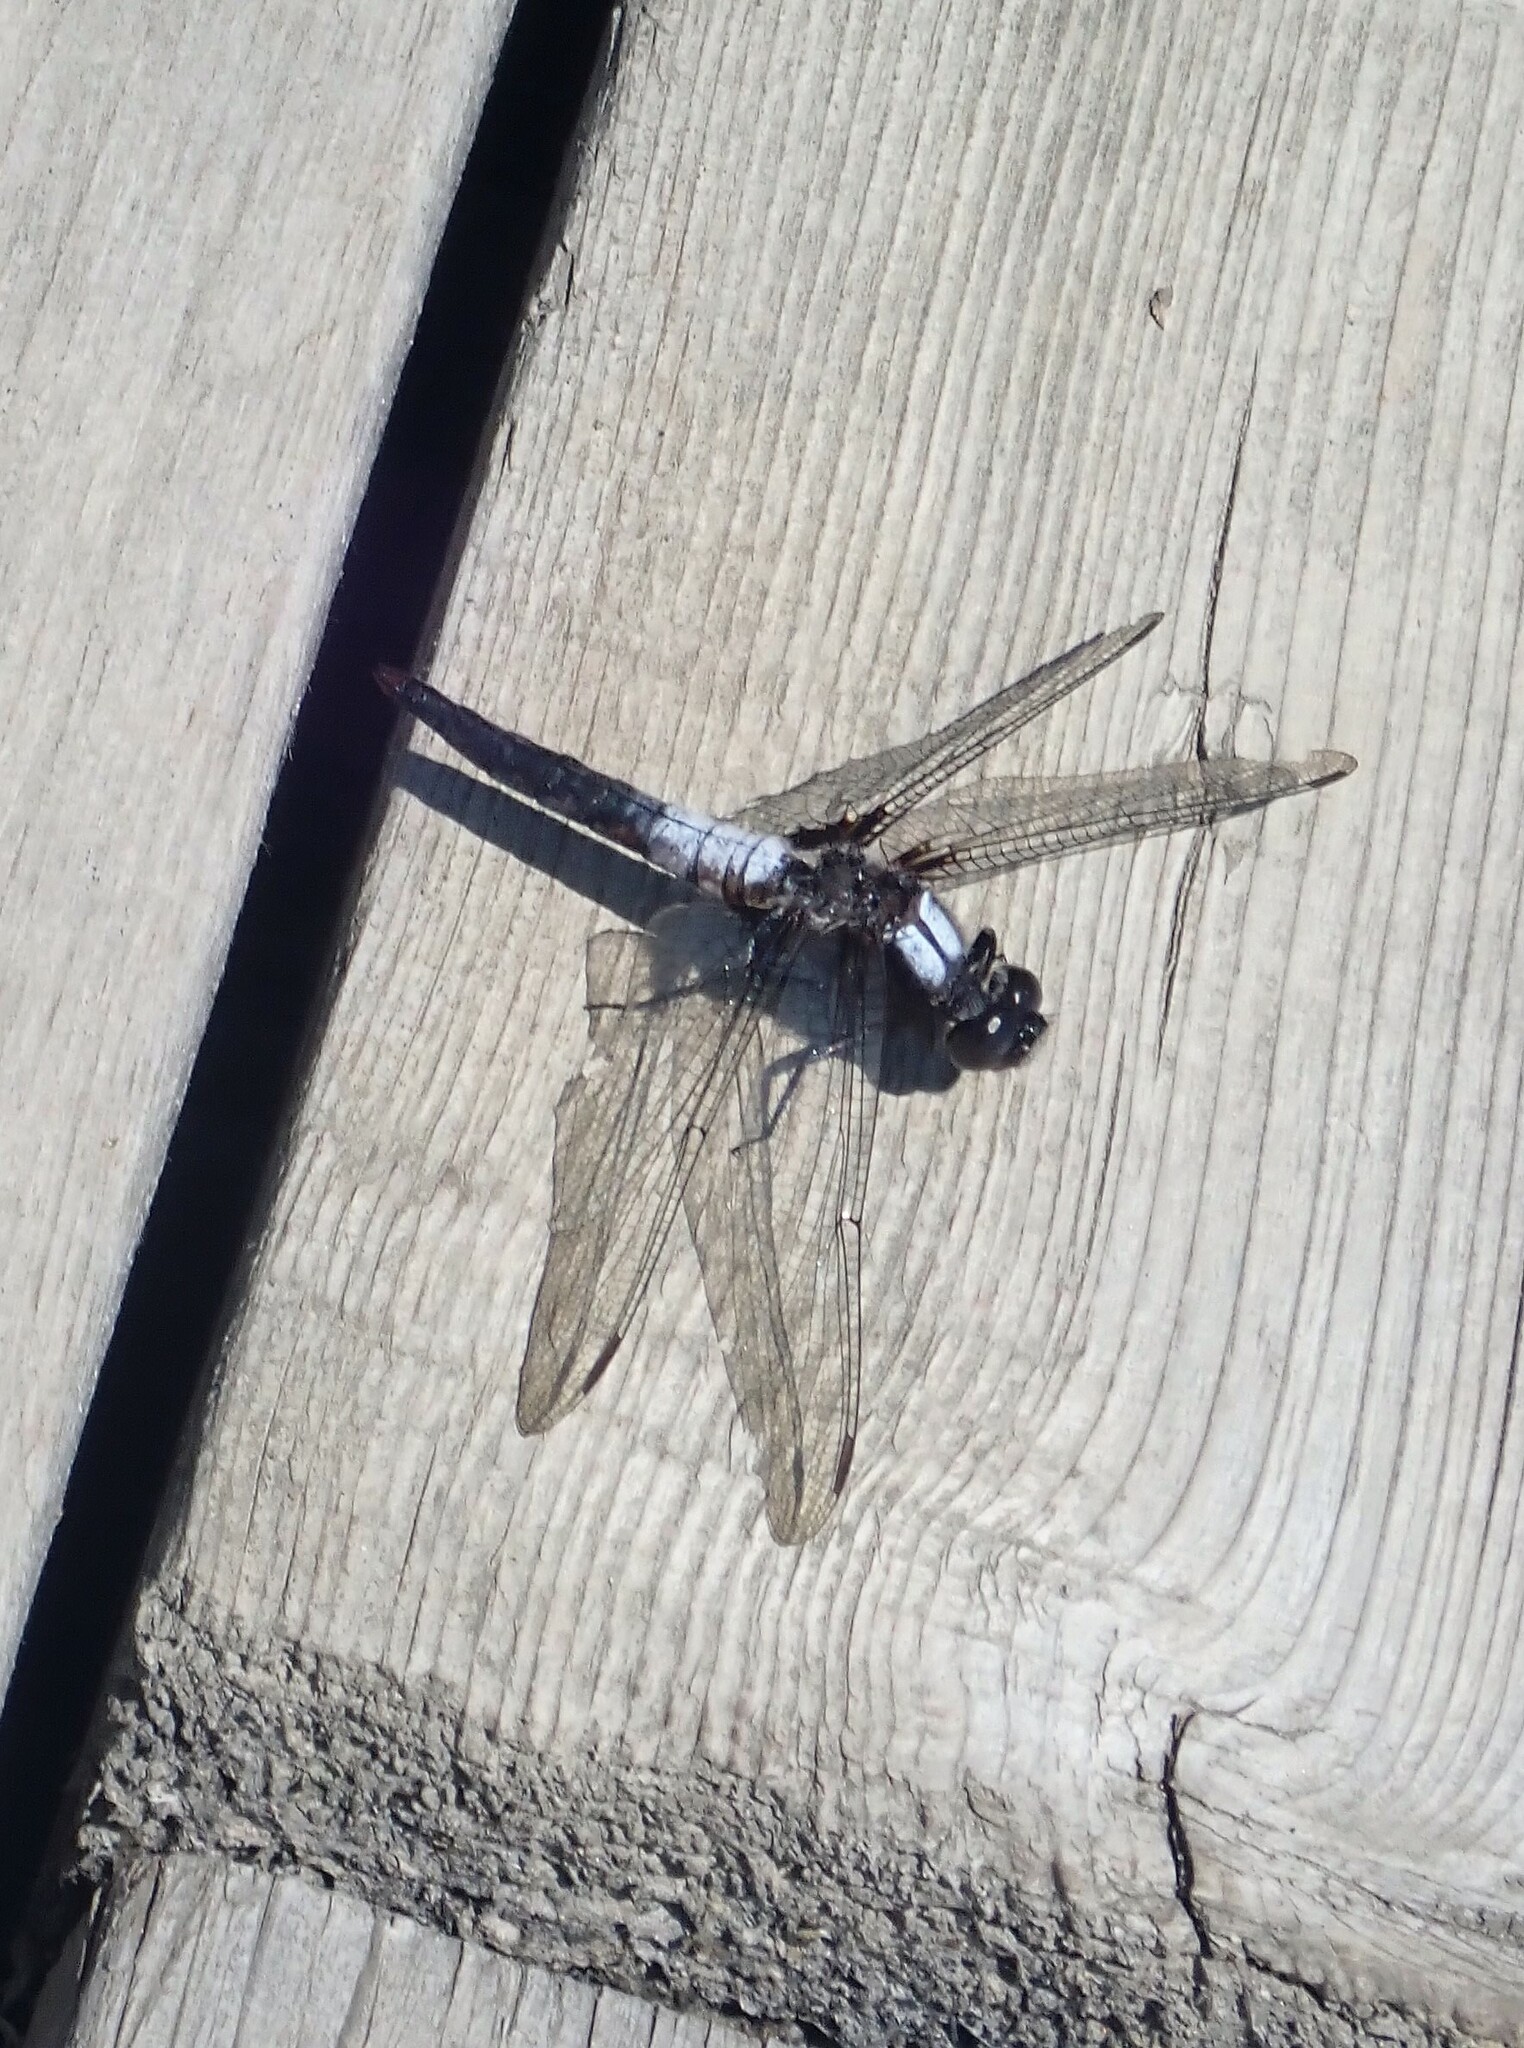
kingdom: Animalia
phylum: Arthropoda
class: Insecta
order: Odonata
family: Libellulidae
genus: Ladona
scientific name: Ladona julia
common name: Chalk-fronted corporal
